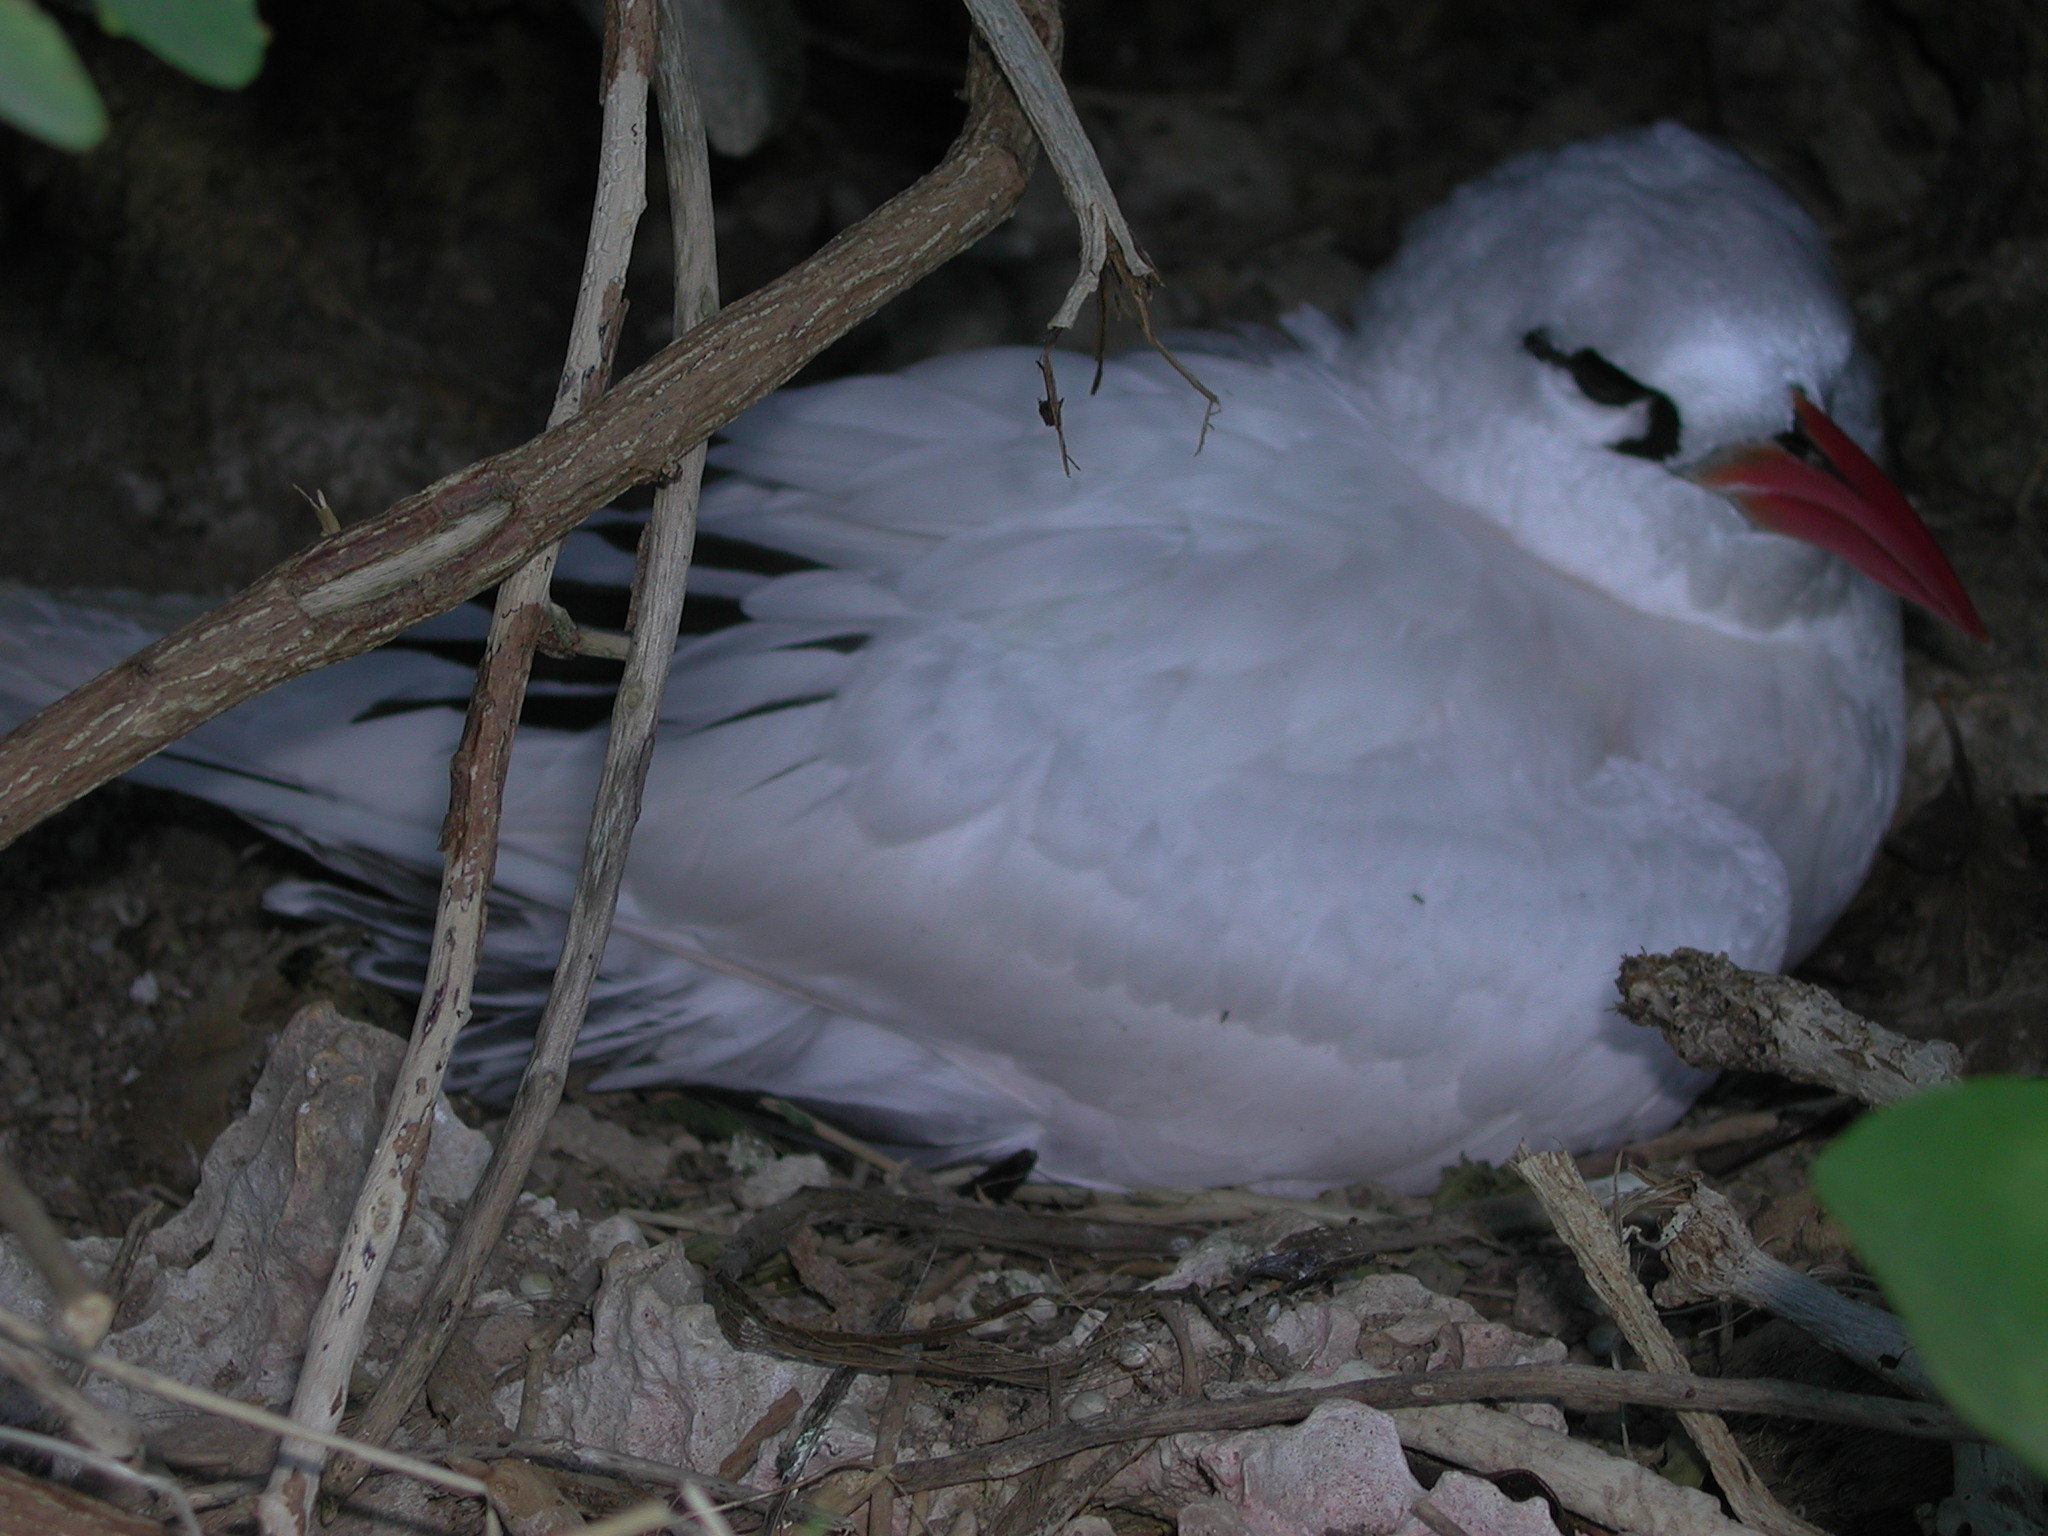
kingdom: Animalia
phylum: Chordata
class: Aves
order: Phaethontiformes
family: Phaethontidae
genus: Phaethon
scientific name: Phaethon rubricauda
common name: Red-tailed tropicbird
